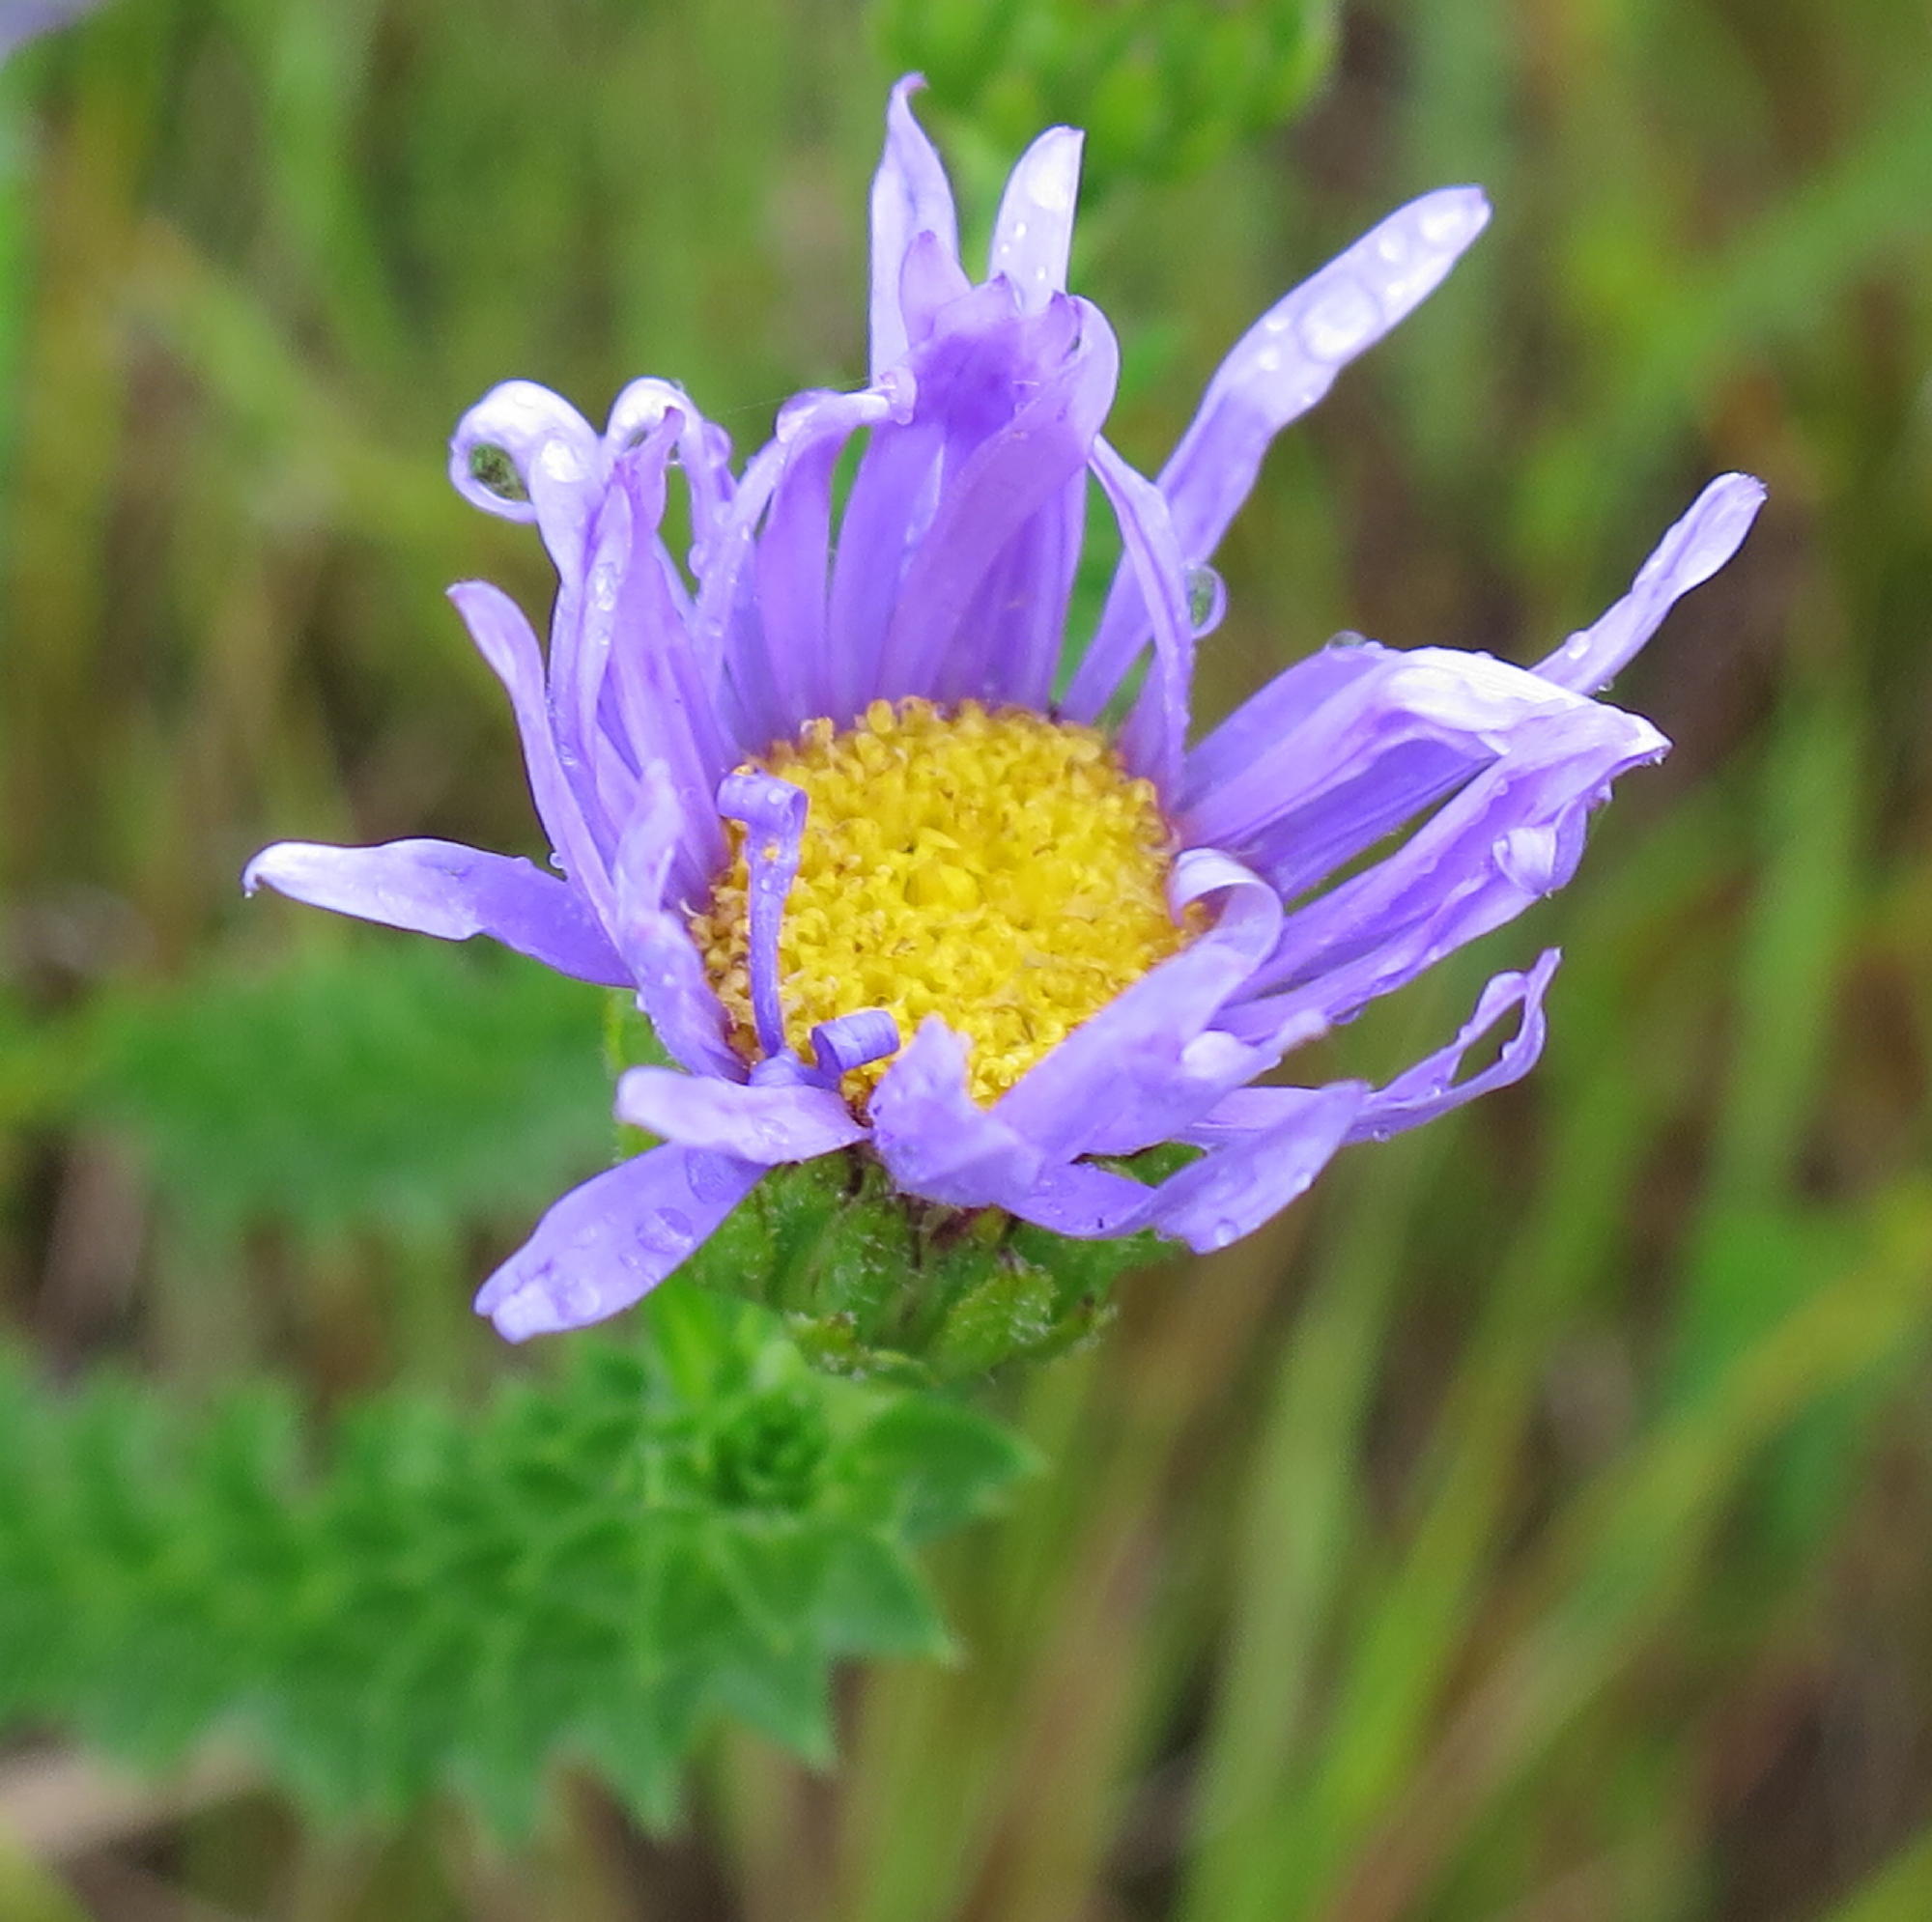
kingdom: Plantae
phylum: Tracheophyta
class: Magnoliopsida
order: Asterales
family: Asteraceae
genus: Felicia
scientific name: Felicia echinata
